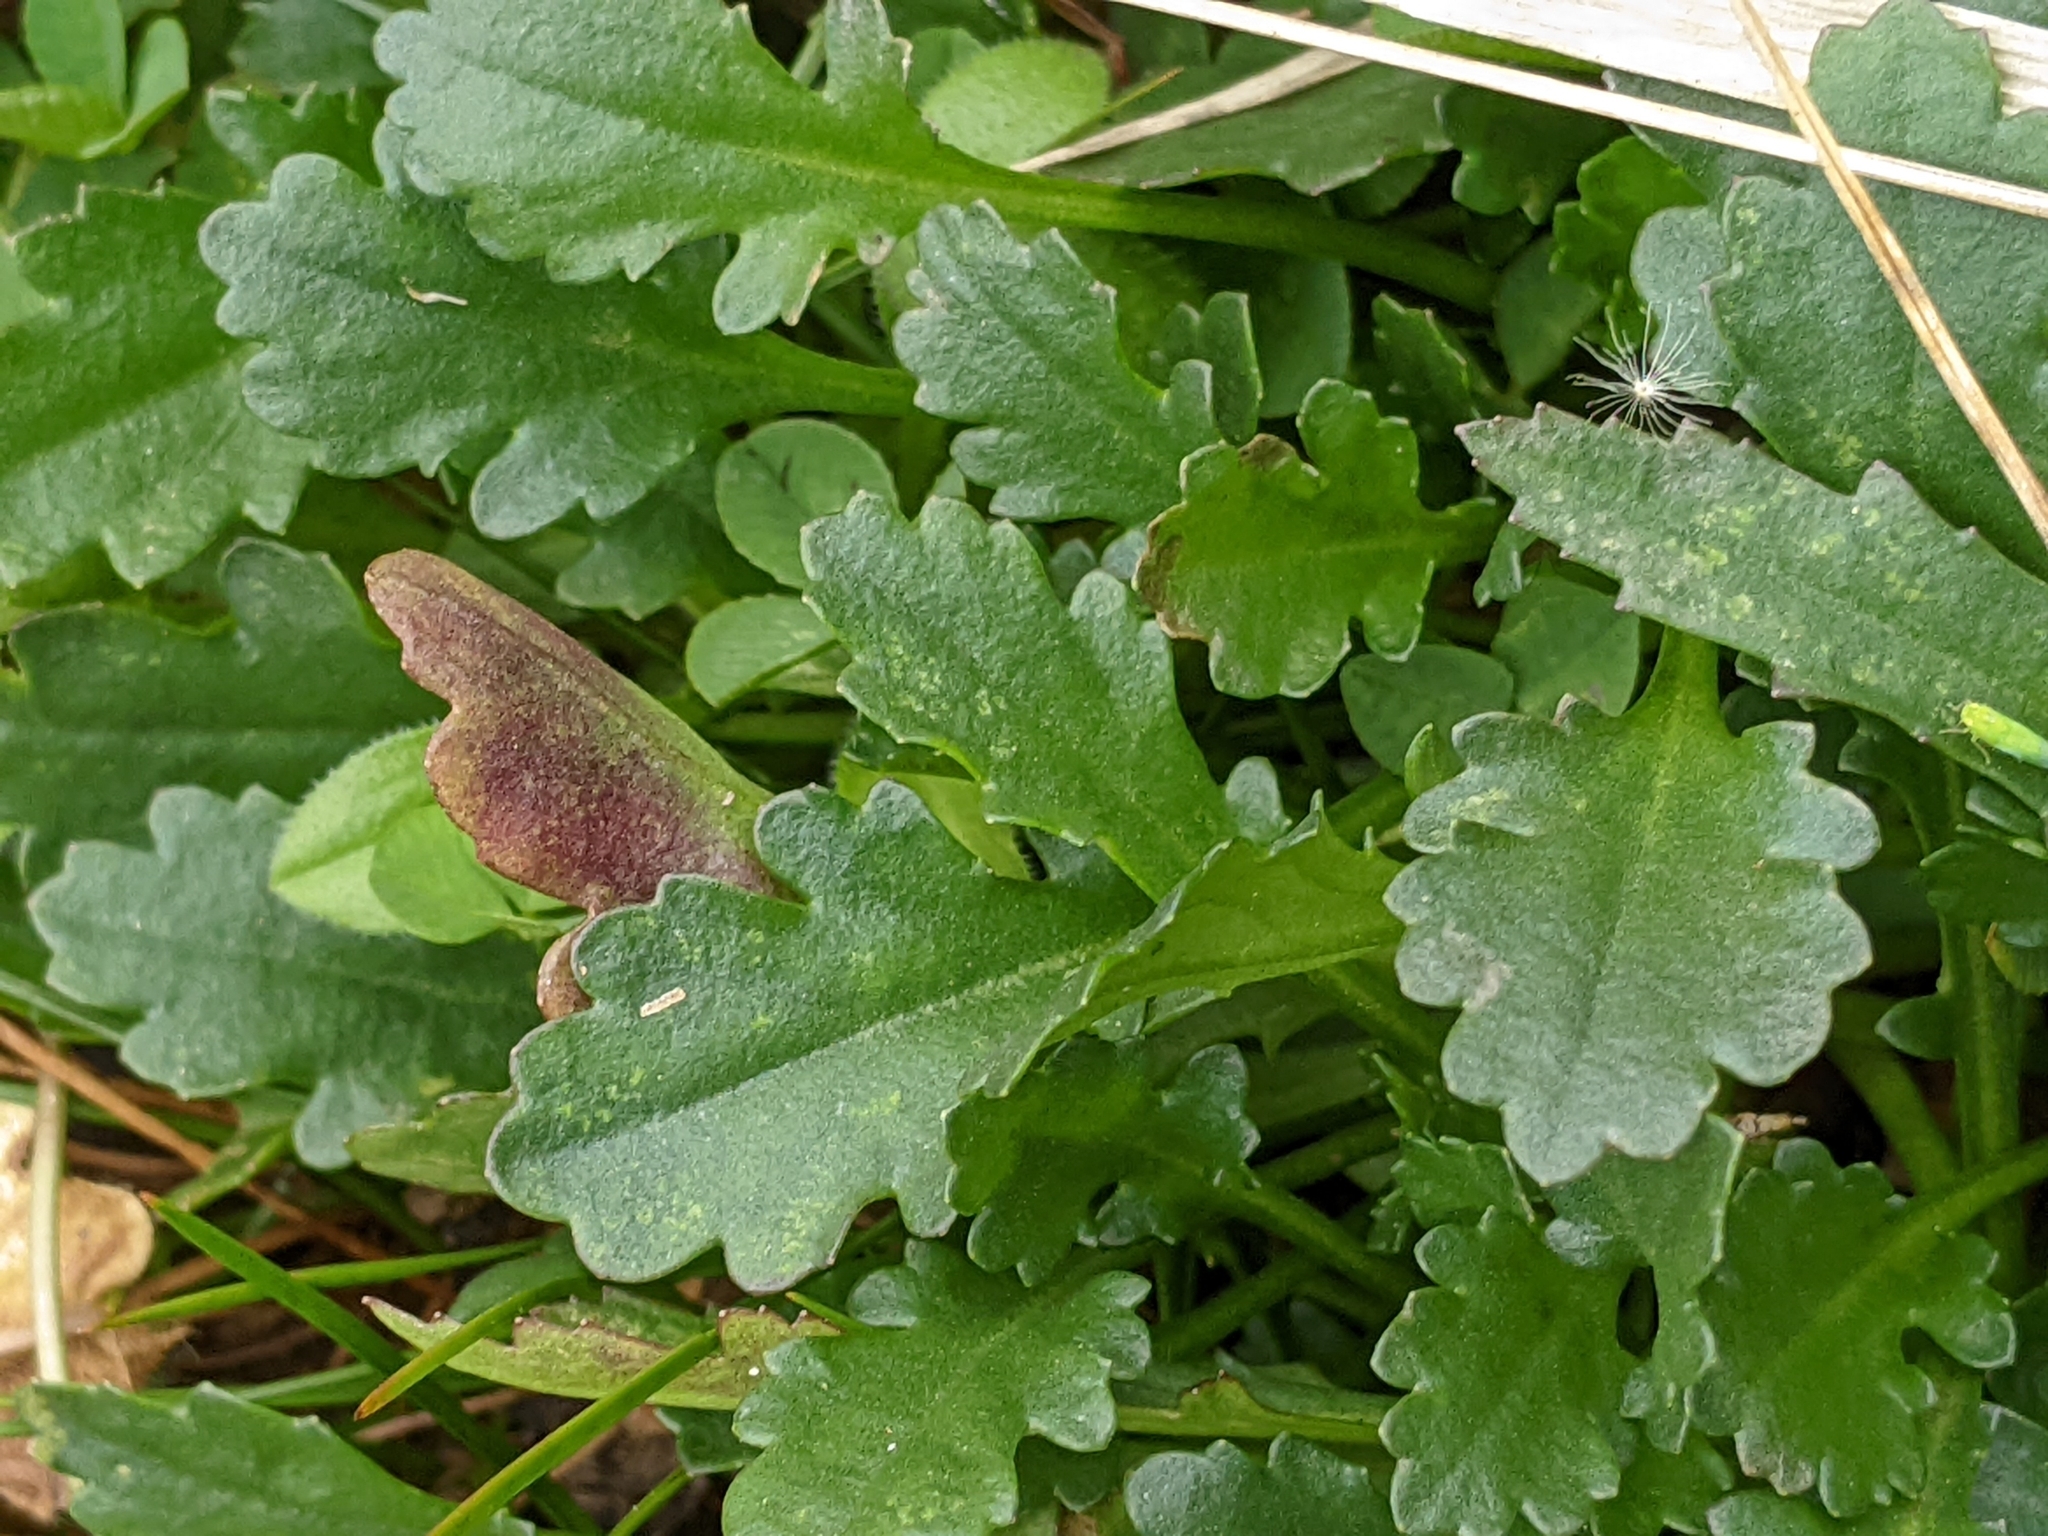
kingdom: Plantae
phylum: Tracheophyta
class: Magnoliopsida
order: Asterales
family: Asteraceae
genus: Leucanthemum
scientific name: Leucanthemum vulgare
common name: Oxeye daisy
